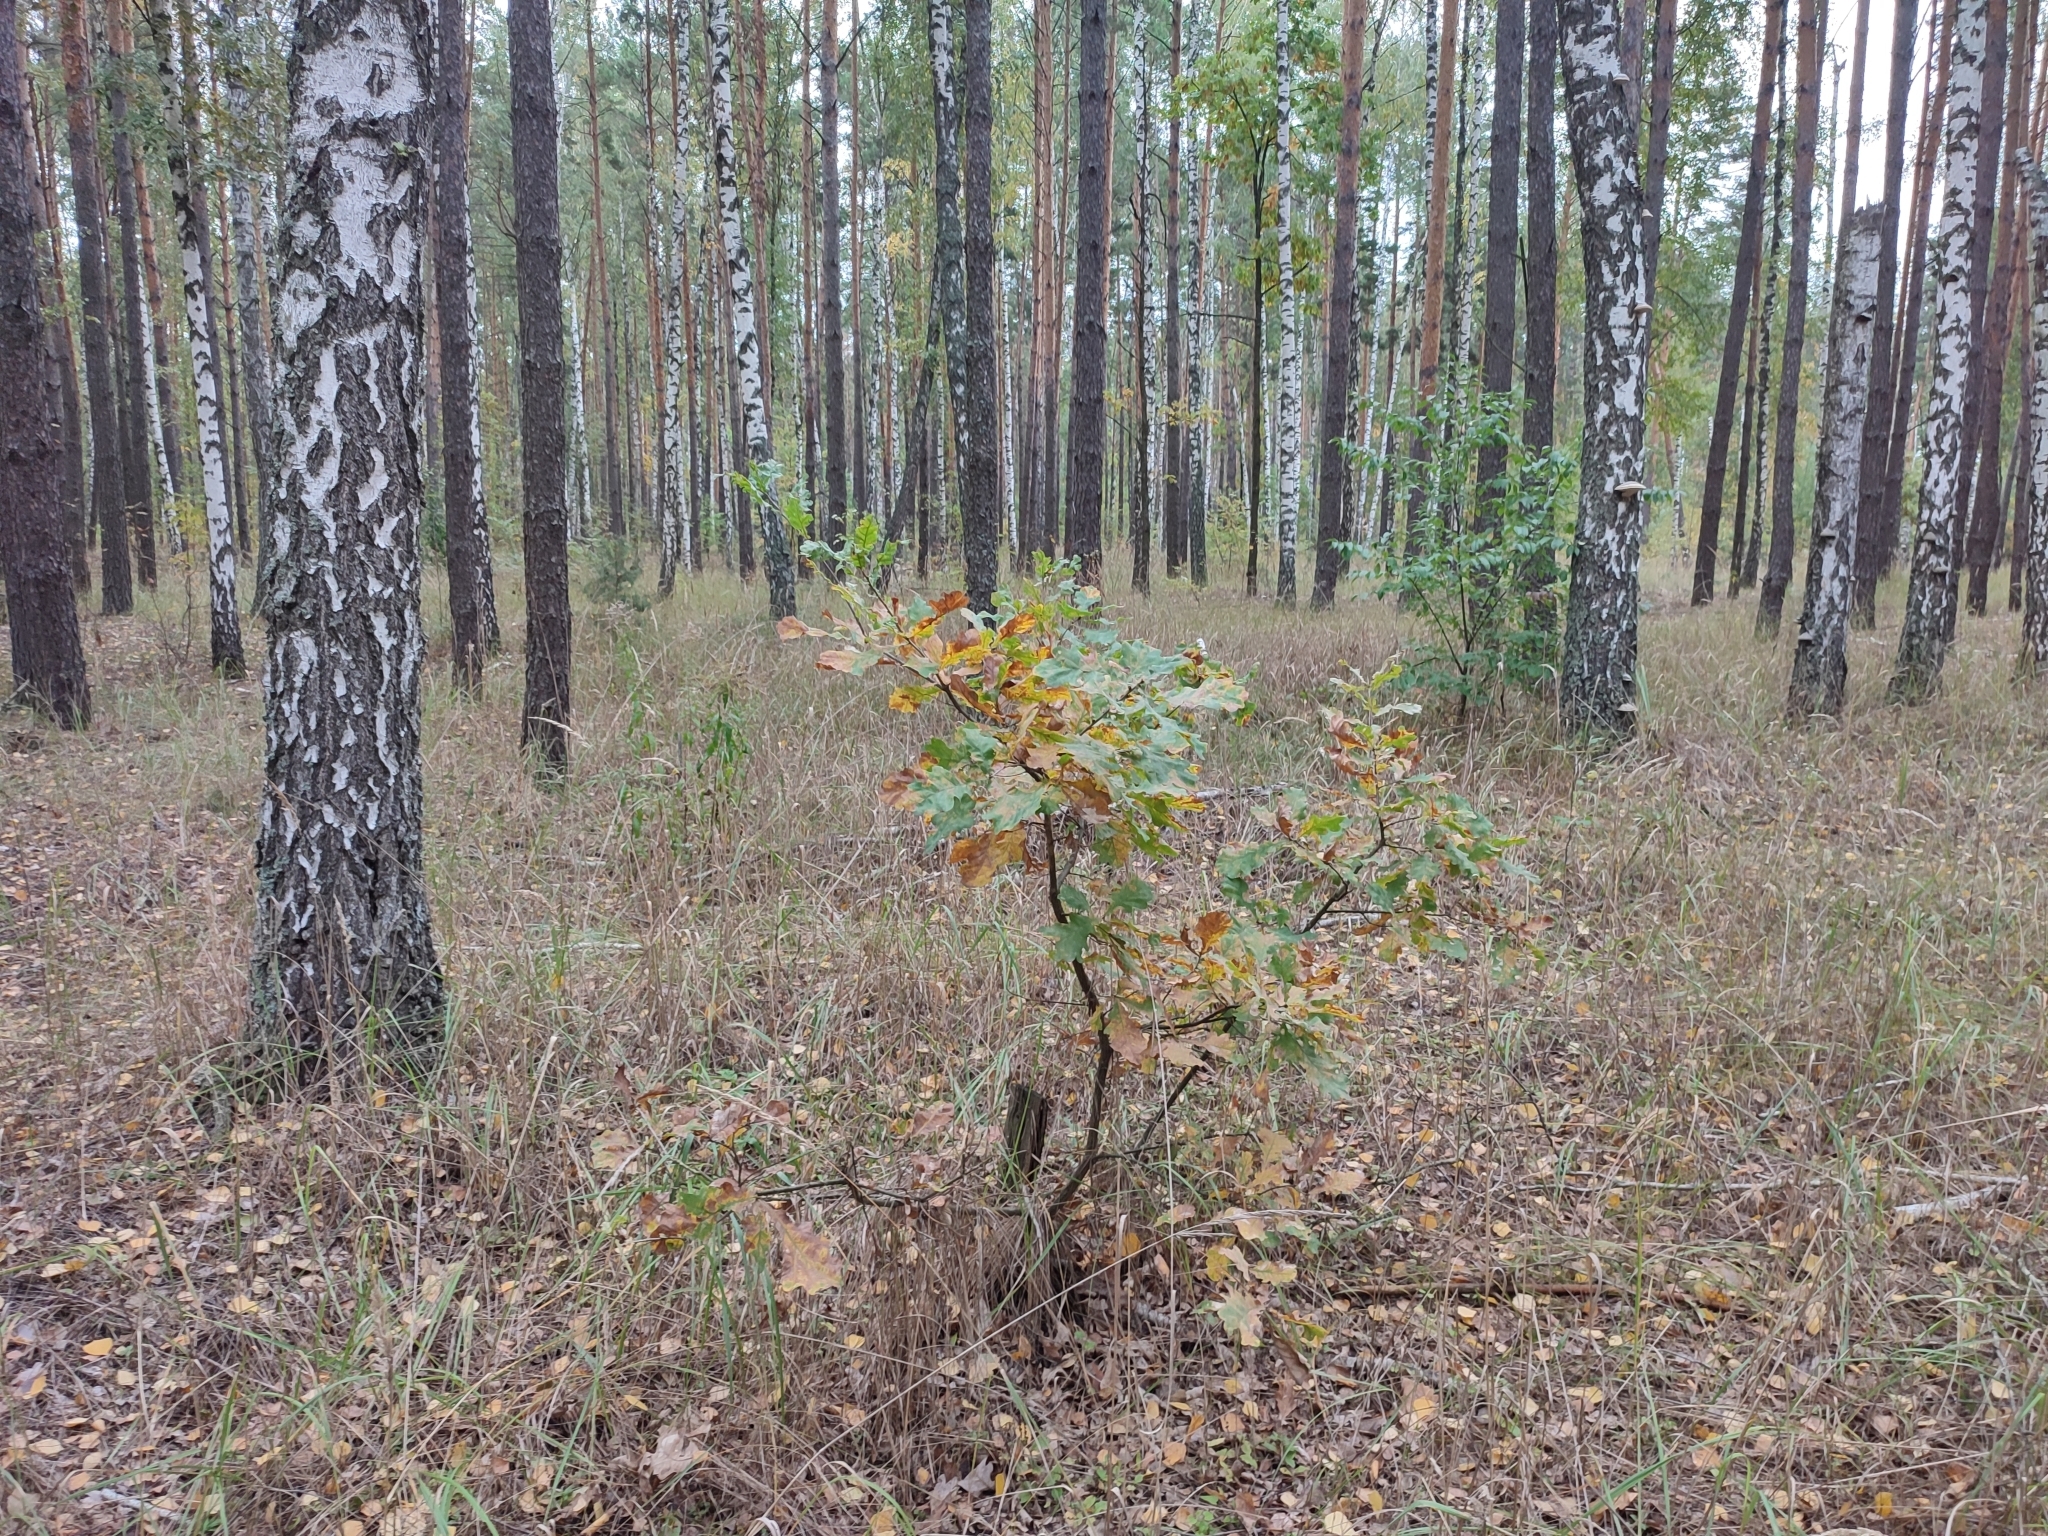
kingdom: Plantae
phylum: Tracheophyta
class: Magnoliopsida
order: Fagales
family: Fagaceae
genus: Quercus
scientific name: Quercus robur
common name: Pedunculate oak
